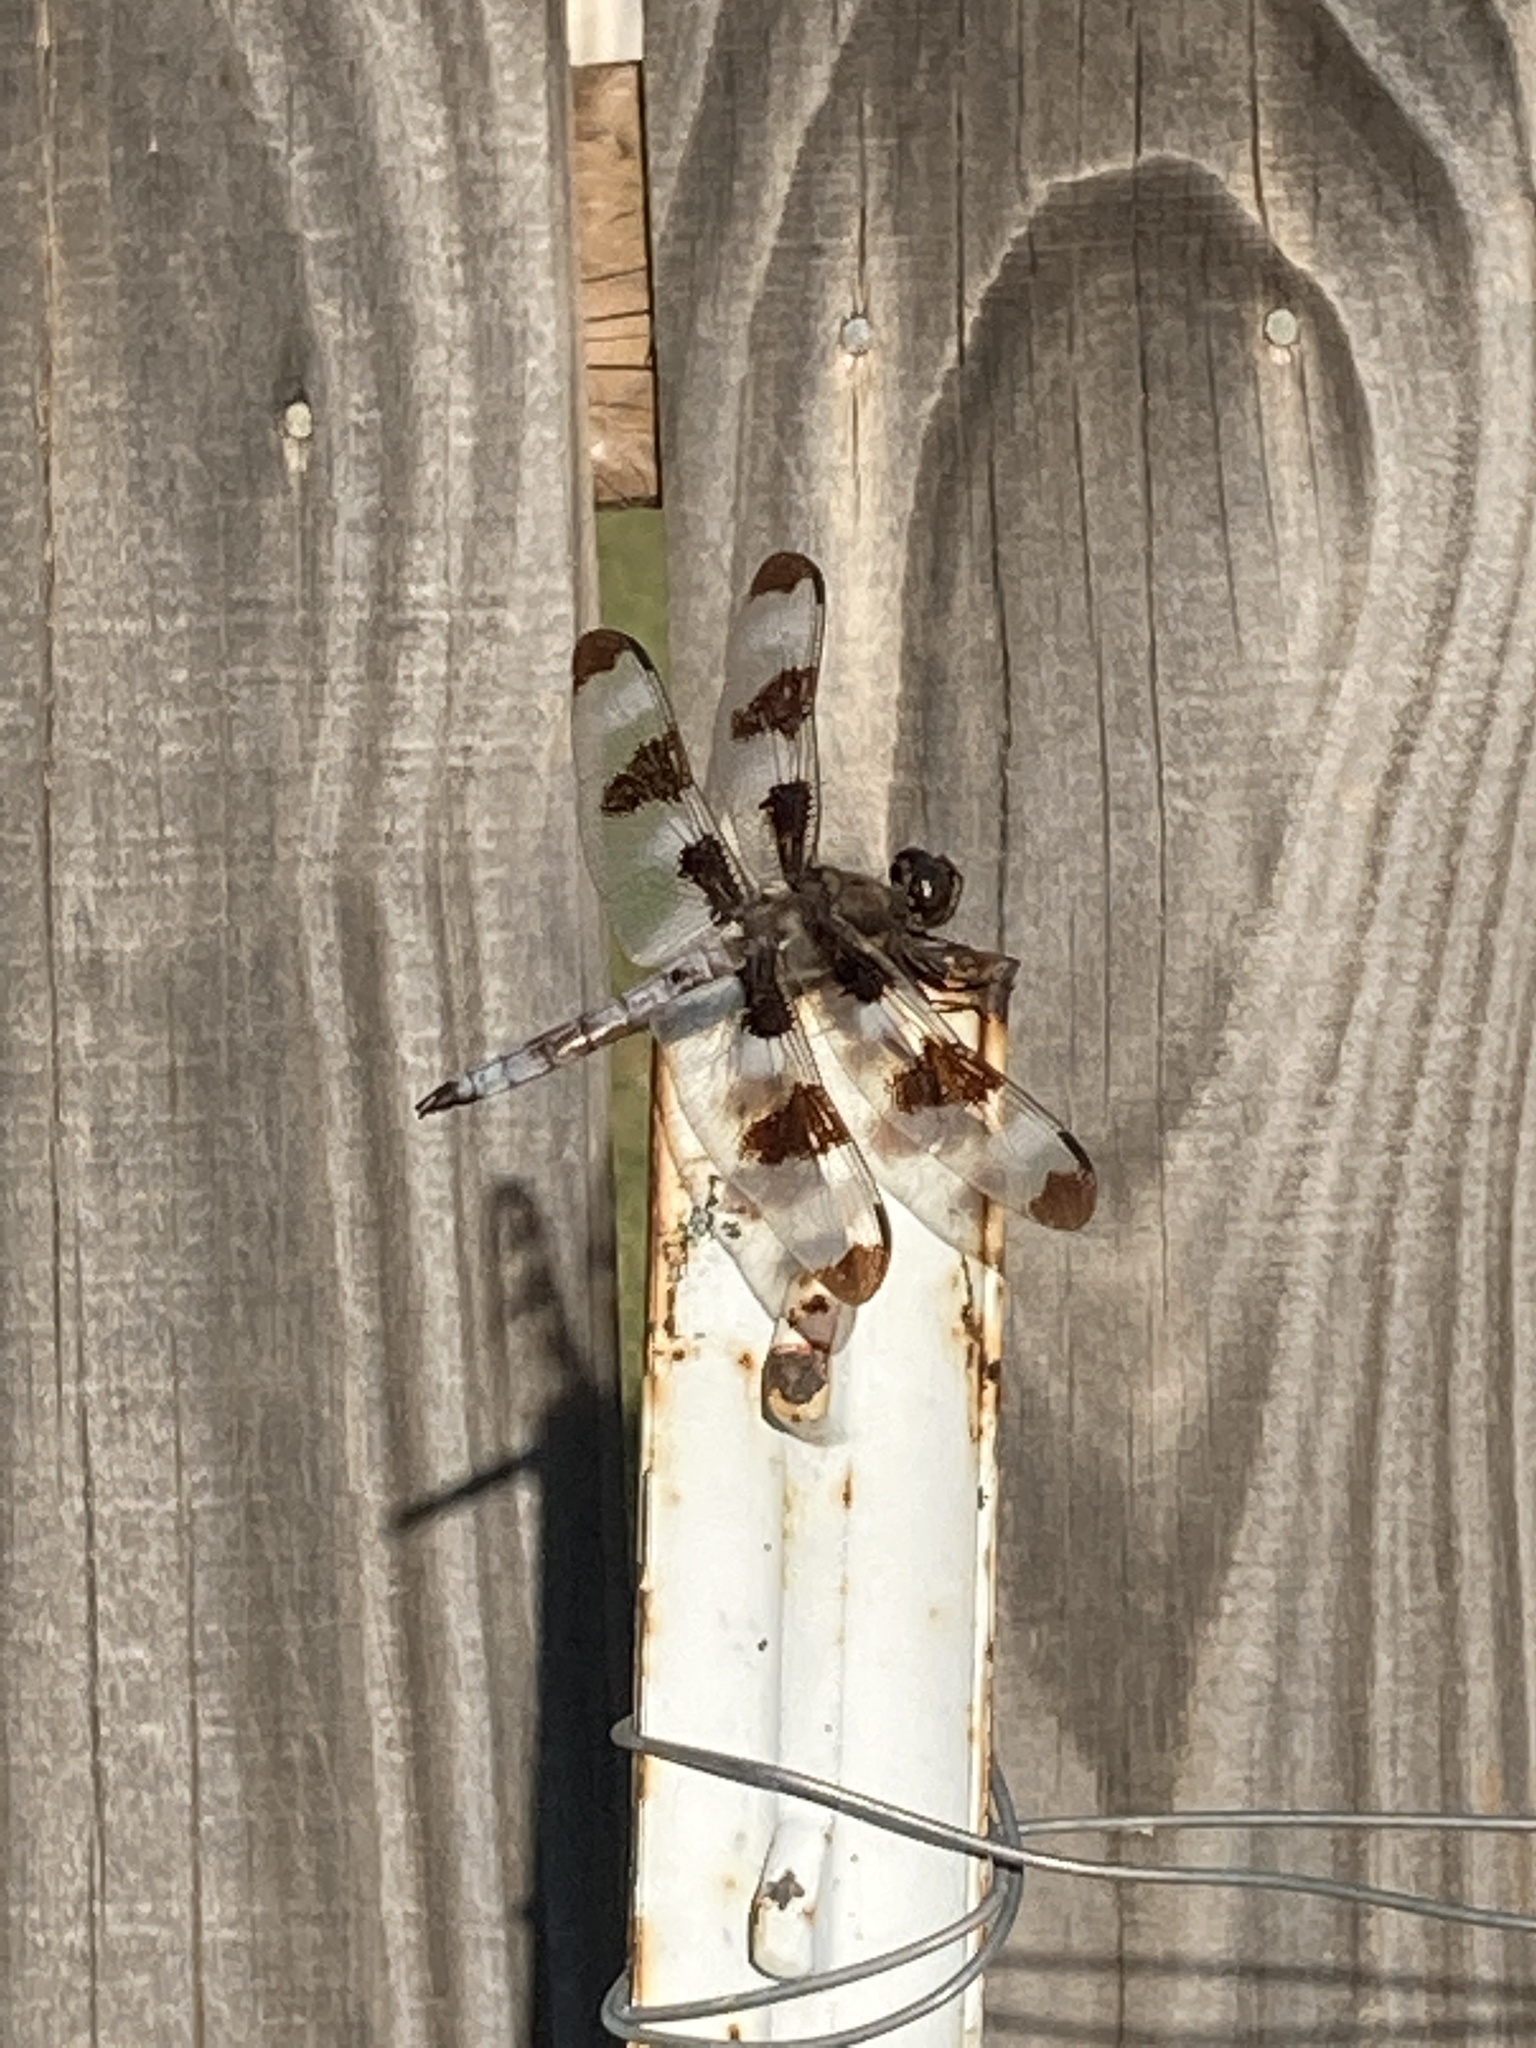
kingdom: Animalia
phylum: Arthropoda
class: Insecta
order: Odonata
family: Libellulidae
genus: Libellula
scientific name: Libellula pulchella
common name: Twelve-spotted skimmer
